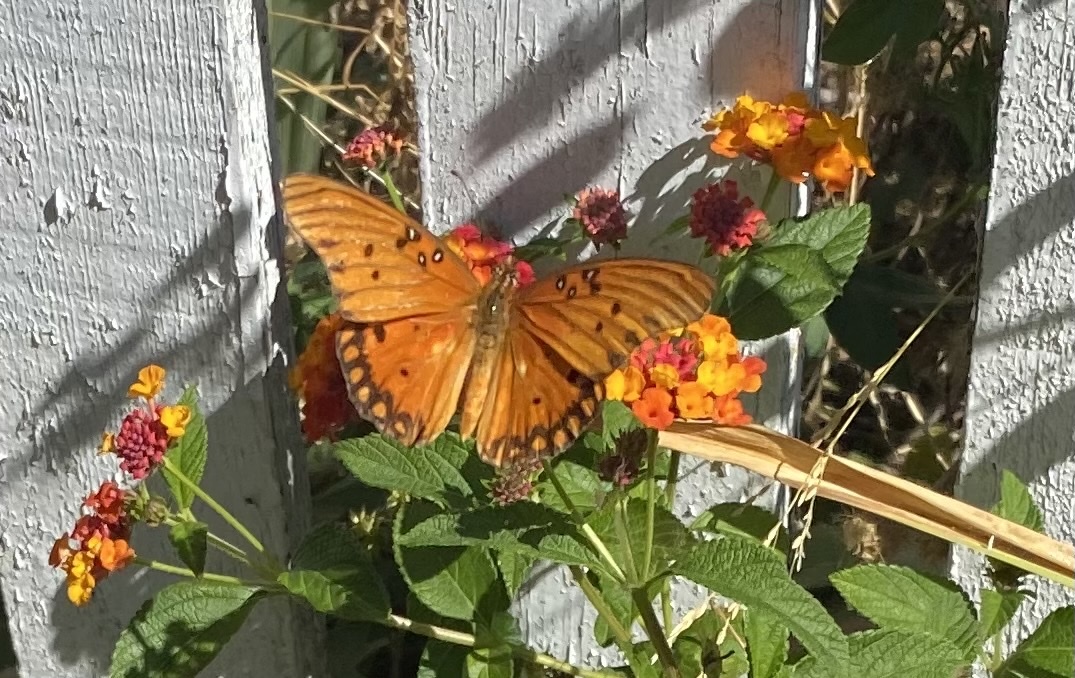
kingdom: Animalia
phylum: Arthropoda
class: Insecta
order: Lepidoptera
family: Nymphalidae
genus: Dione
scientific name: Dione vanillae
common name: Gulf fritillary
